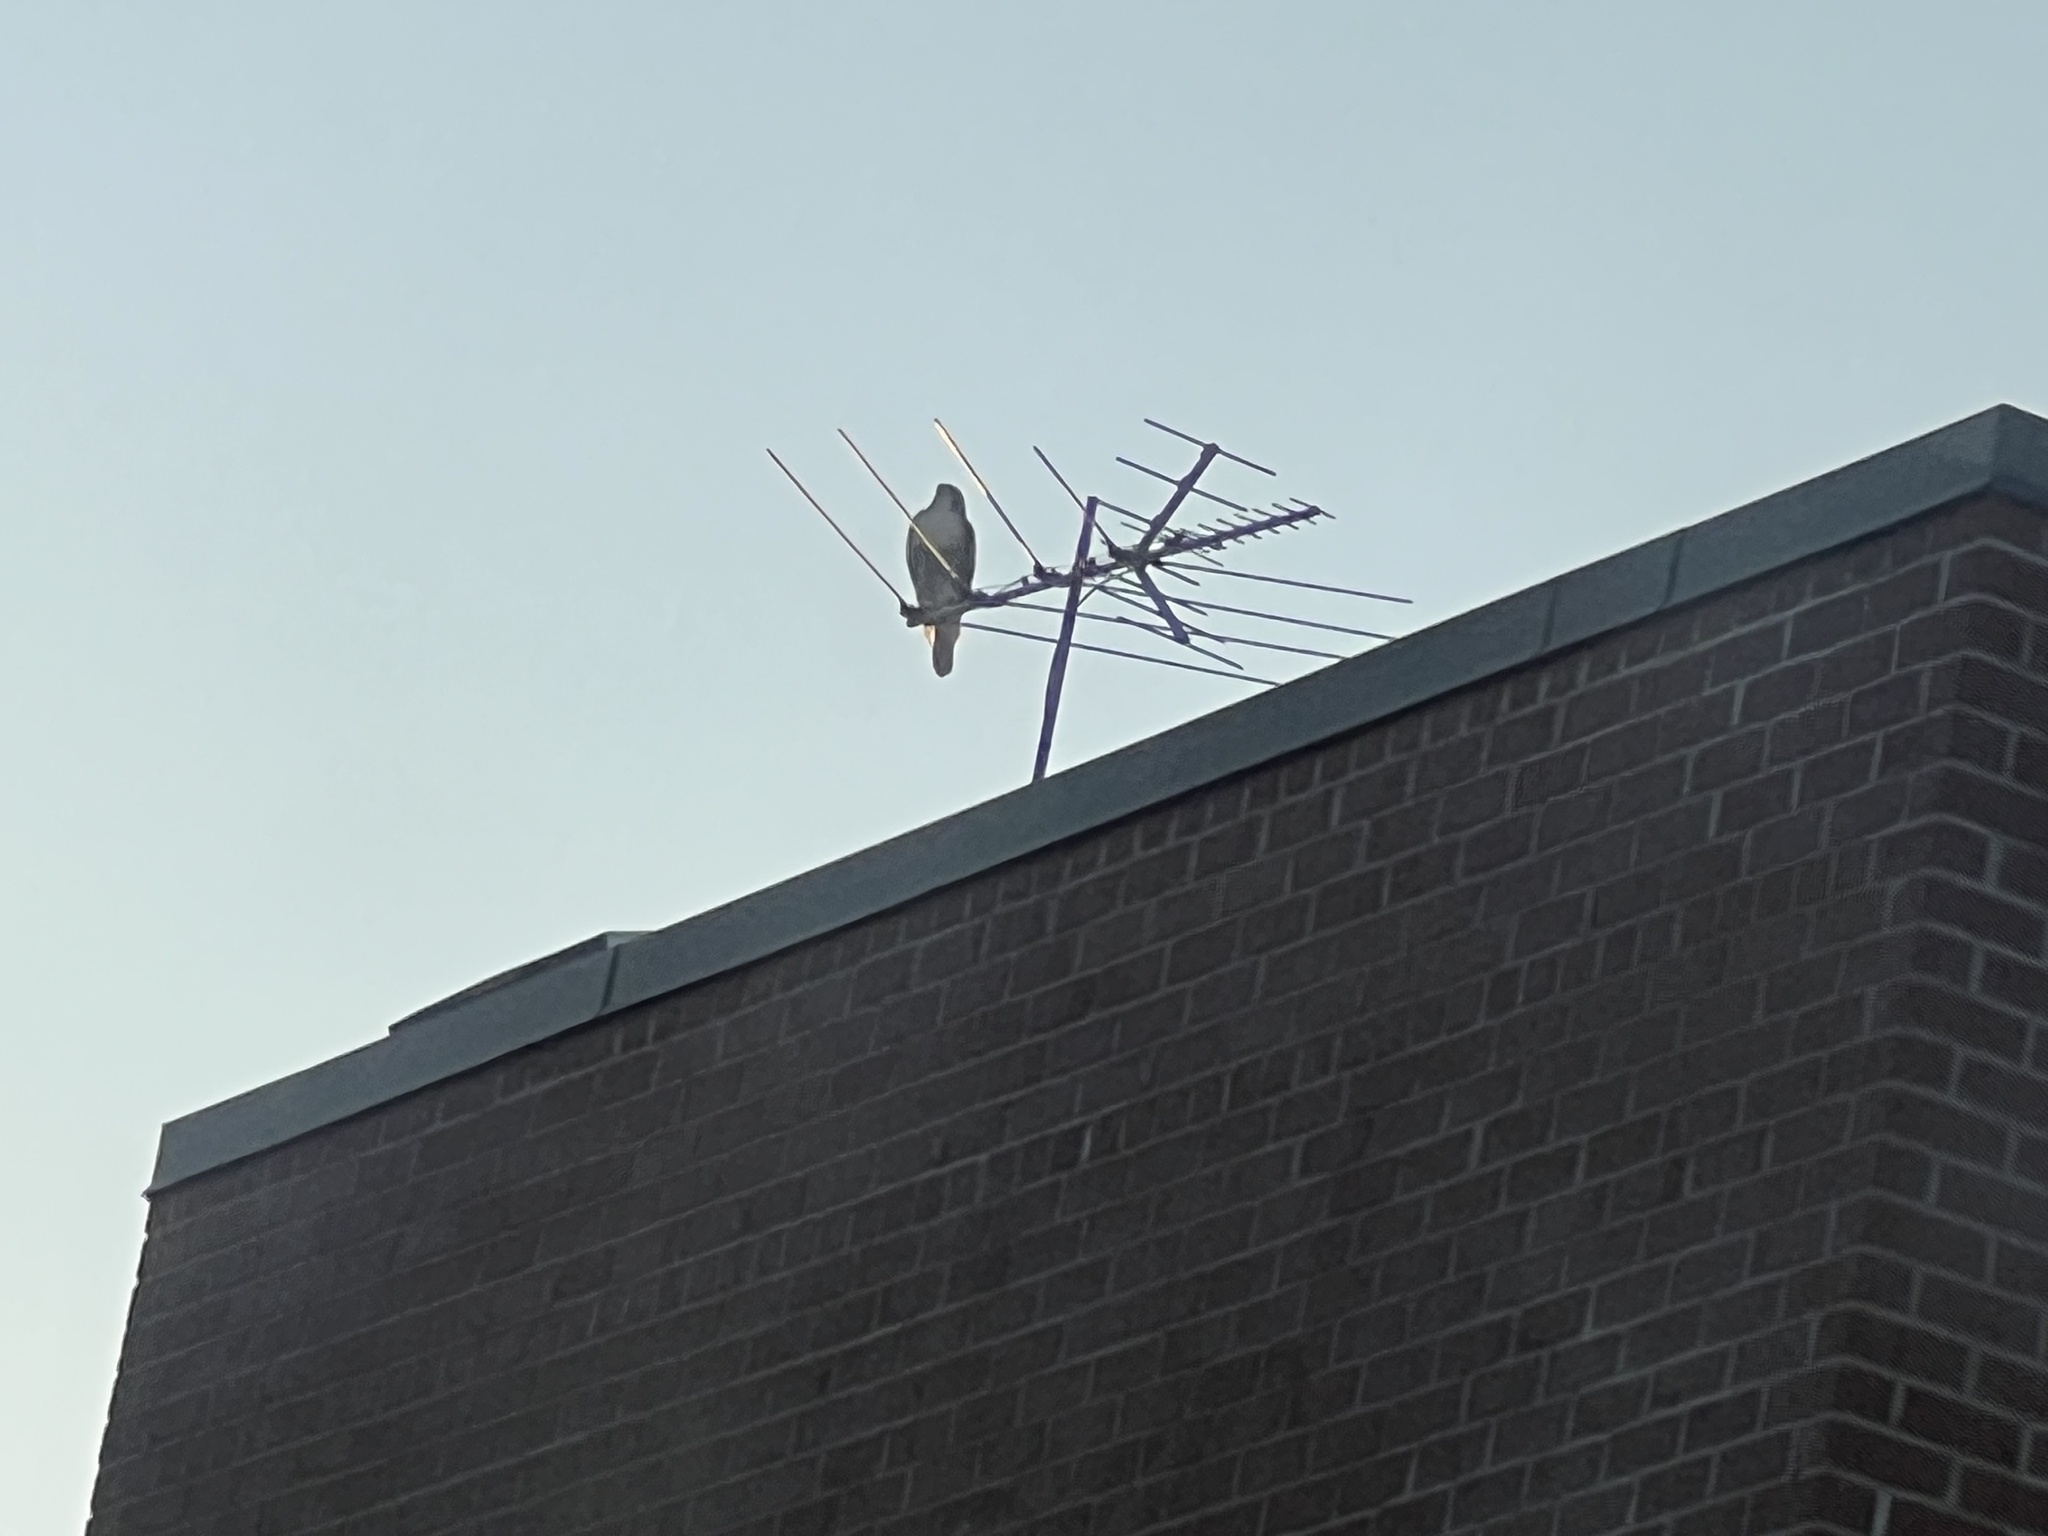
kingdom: Animalia
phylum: Chordata
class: Aves
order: Accipitriformes
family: Accipitridae
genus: Buteo
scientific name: Buteo jamaicensis
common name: Red-tailed hawk
